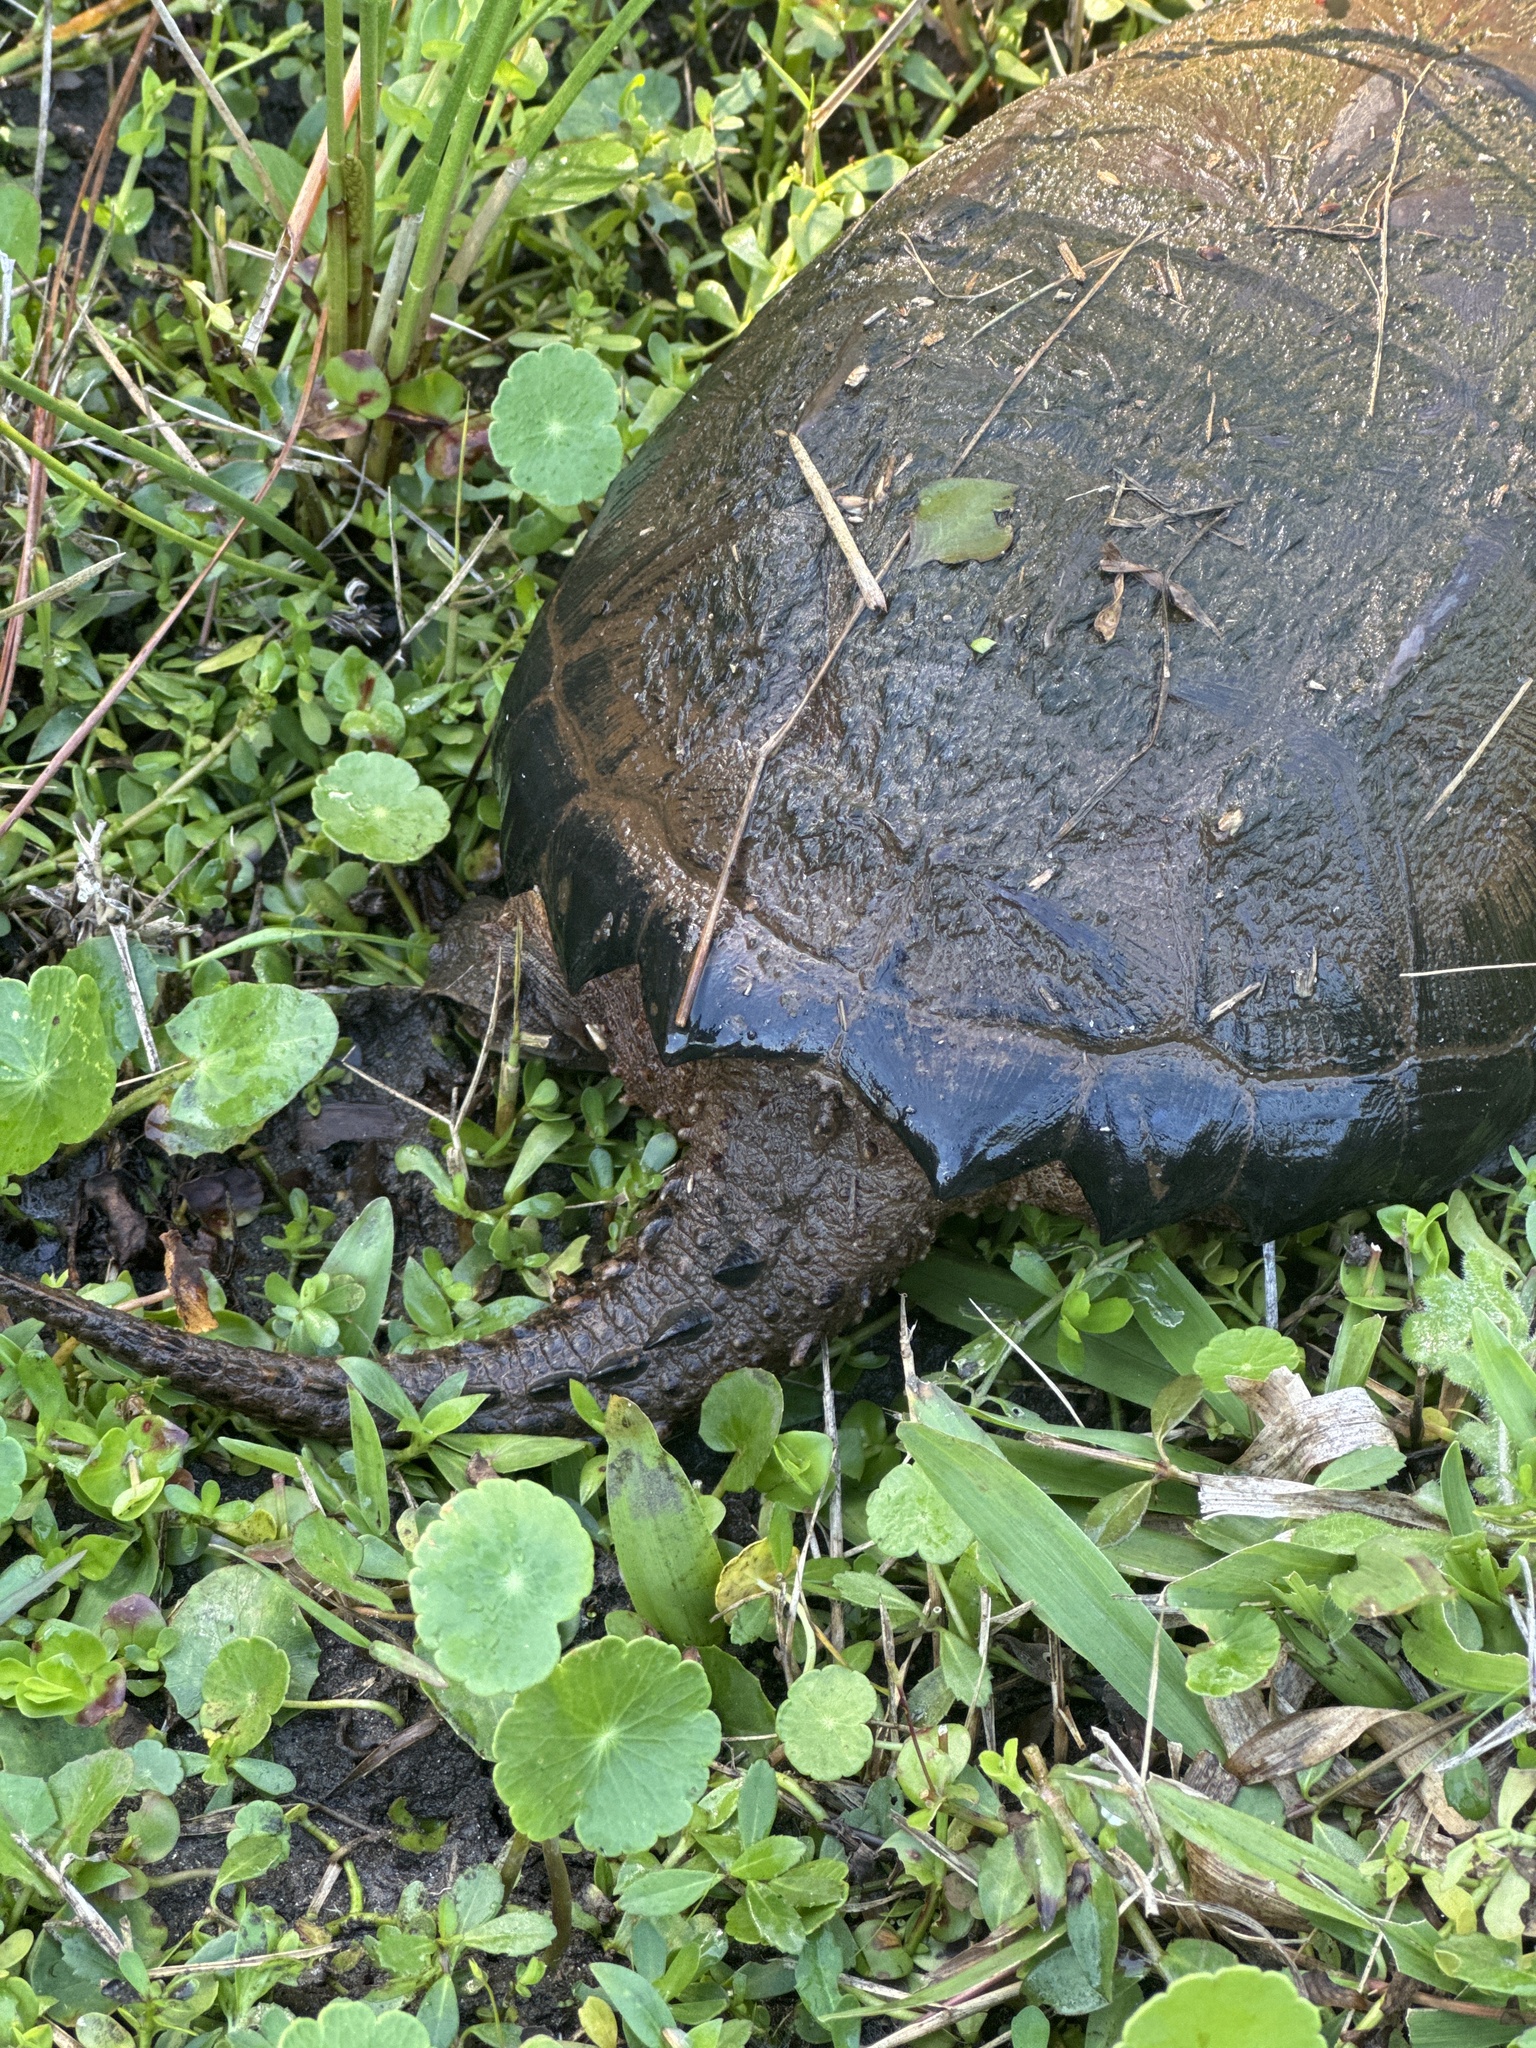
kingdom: Animalia
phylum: Chordata
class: Testudines
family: Chelydridae
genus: Chelydra
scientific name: Chelydra serpentina
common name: Common snapping turtle
